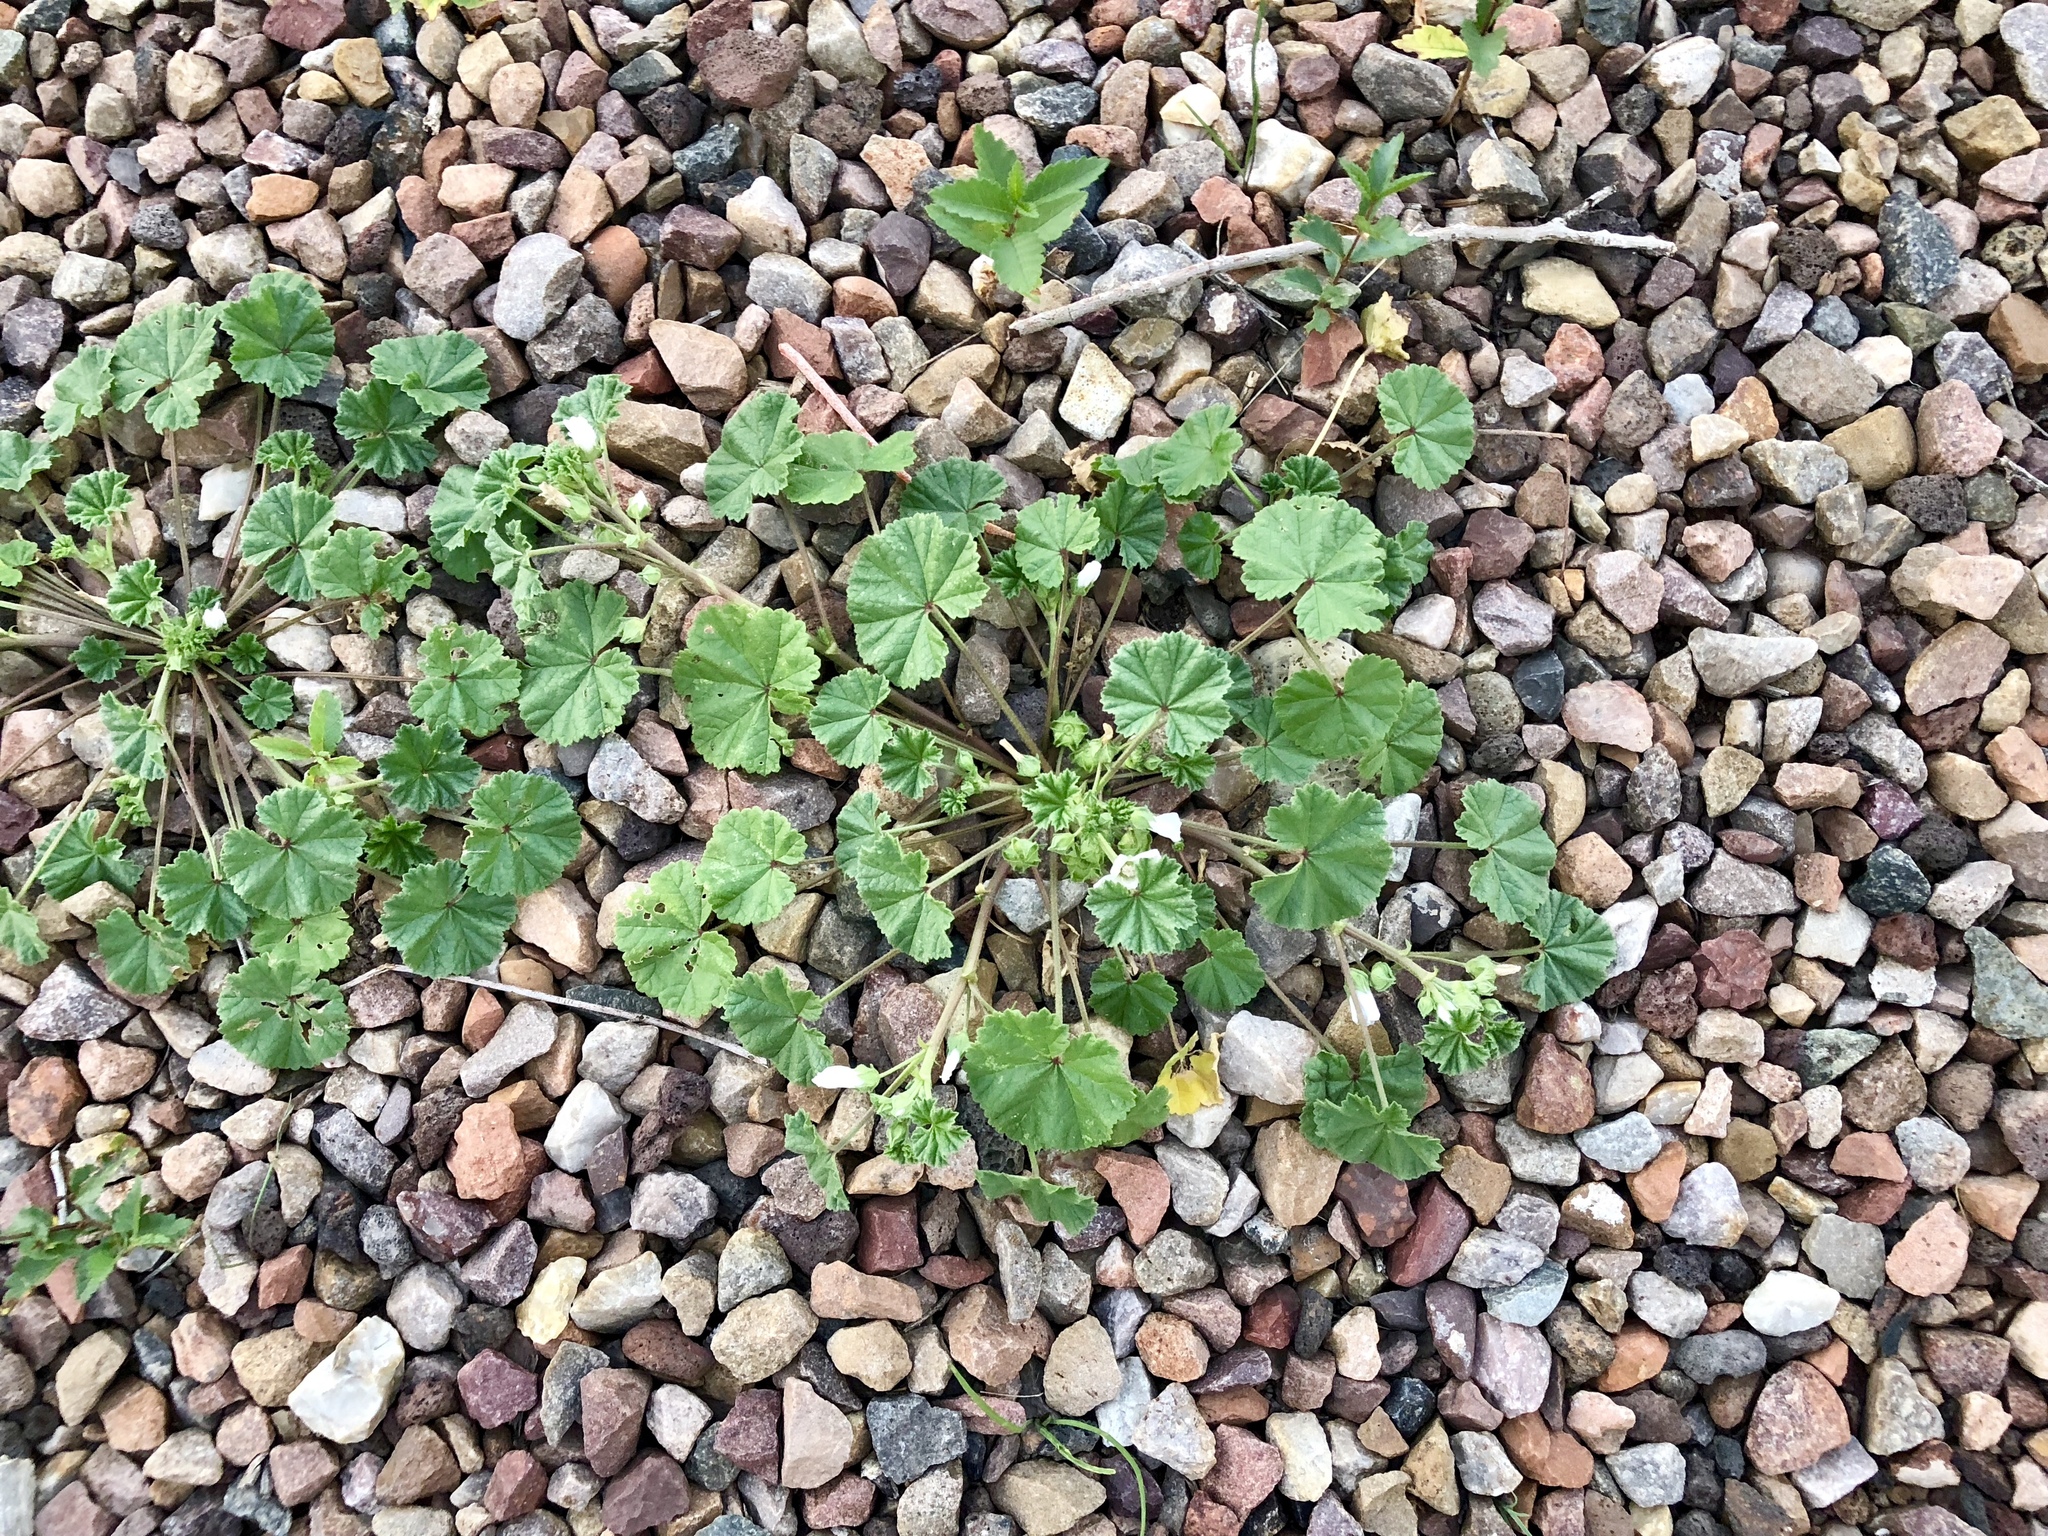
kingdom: Plantae
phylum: Tracheophyta
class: Magnoliopsida
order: Malvales
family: Malvaceae
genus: Malva
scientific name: Malva neglecta
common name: Common mallow
